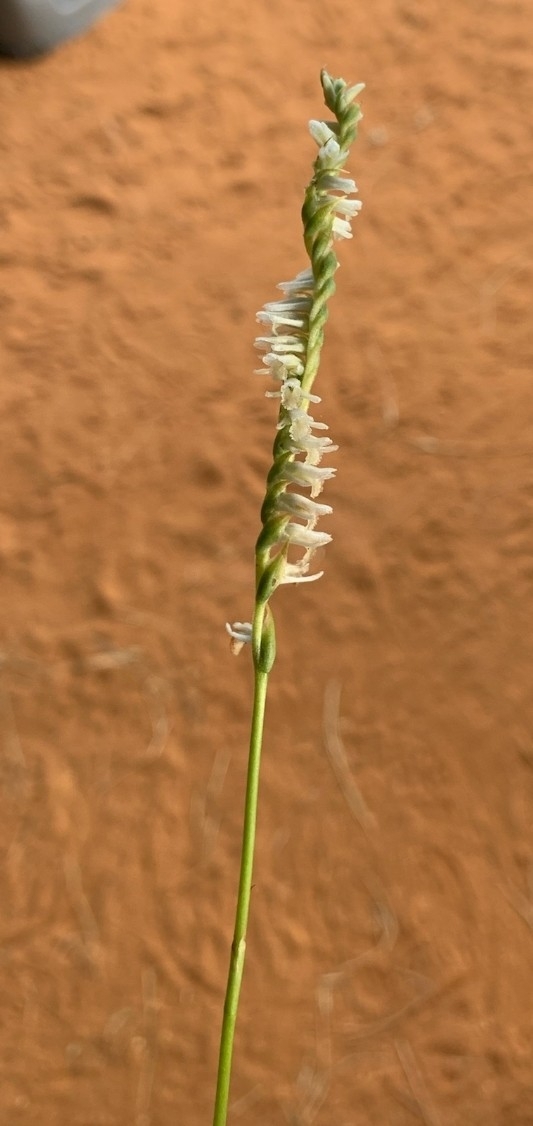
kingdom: Plantae
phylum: Tracheophyta
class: Liliopsida
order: Asparagales
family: Orchidaceae
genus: Spiranthes
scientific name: Spiranthes vernalis
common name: Spring ladies'-tresses
